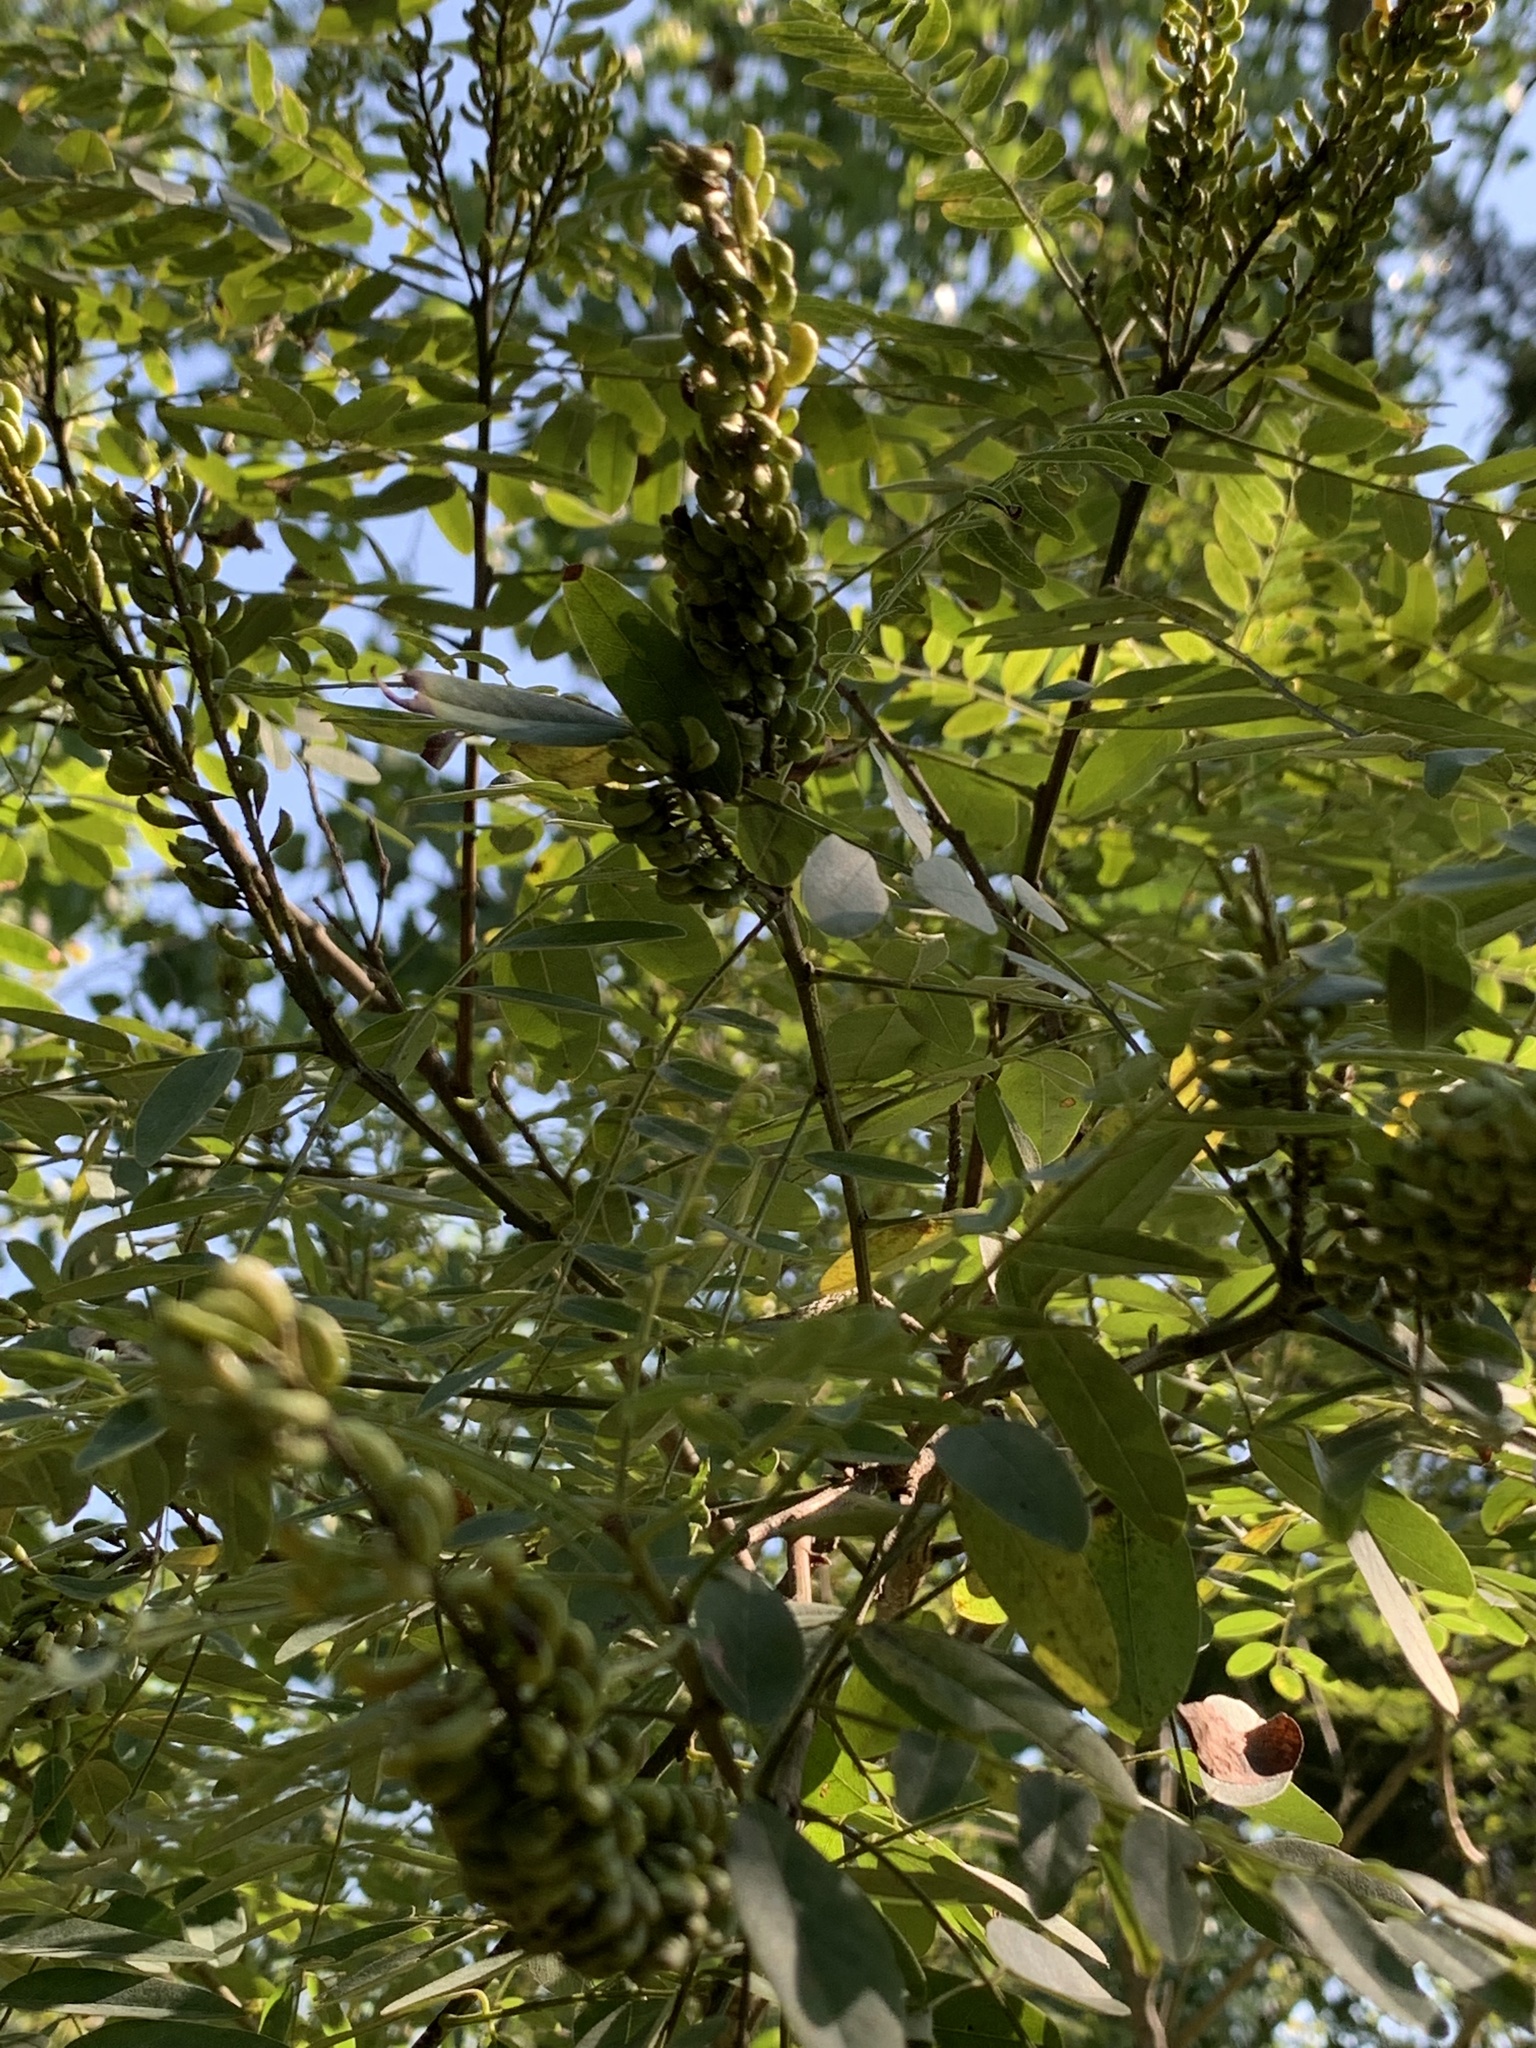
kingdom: Plantae
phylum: Tracheophyta
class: Magnoliopsida
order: Fabales
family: Fabaceae
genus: Amorpha
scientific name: Amorpha fruticosa
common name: False indigo
